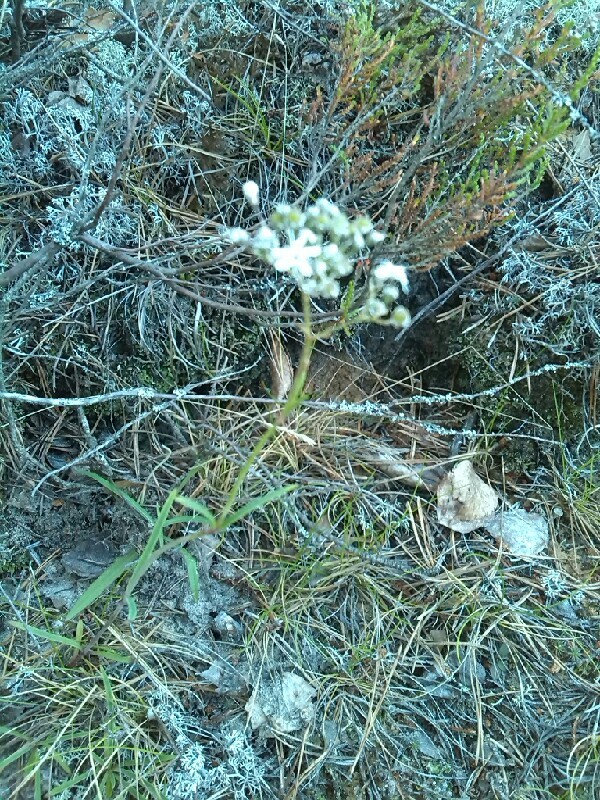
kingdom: Plantae
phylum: Tracheophyta
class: Magnoliopsida
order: Caryophyllales
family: Caryophyllaceae
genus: Gypsophila
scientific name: Gypsophila fastigiata
